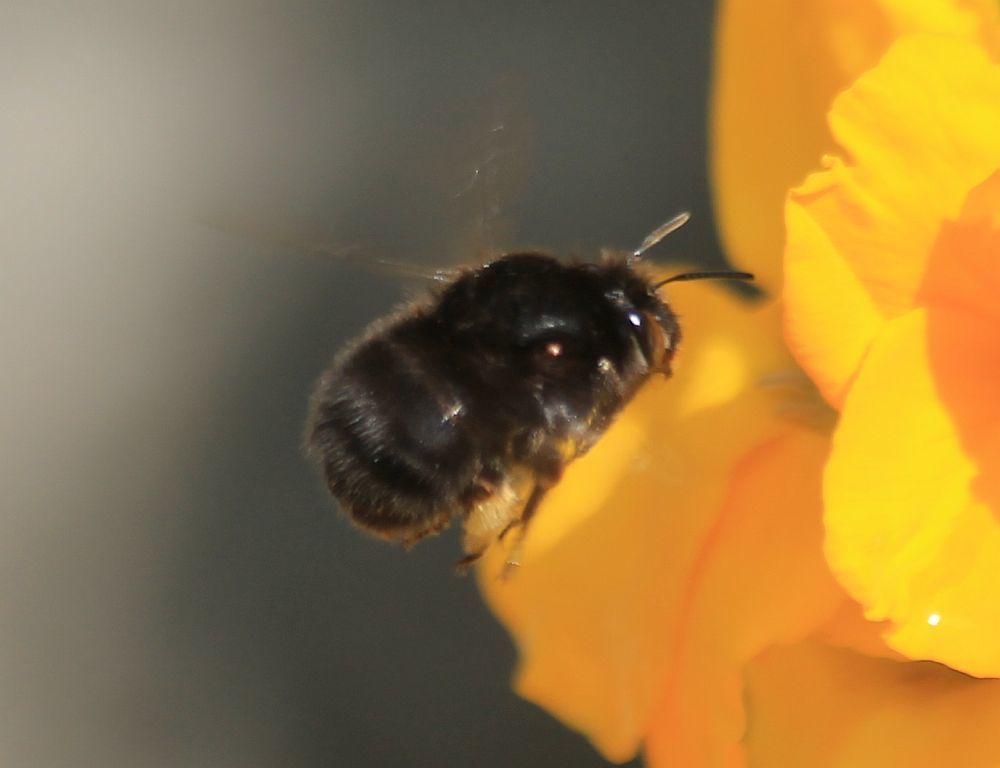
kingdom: Animalia
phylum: Arthropoda
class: Insecta
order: Hymenoptera
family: Apidae
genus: Anthophora
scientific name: Anthophora plumipes
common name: Hairy-footed flower bee
